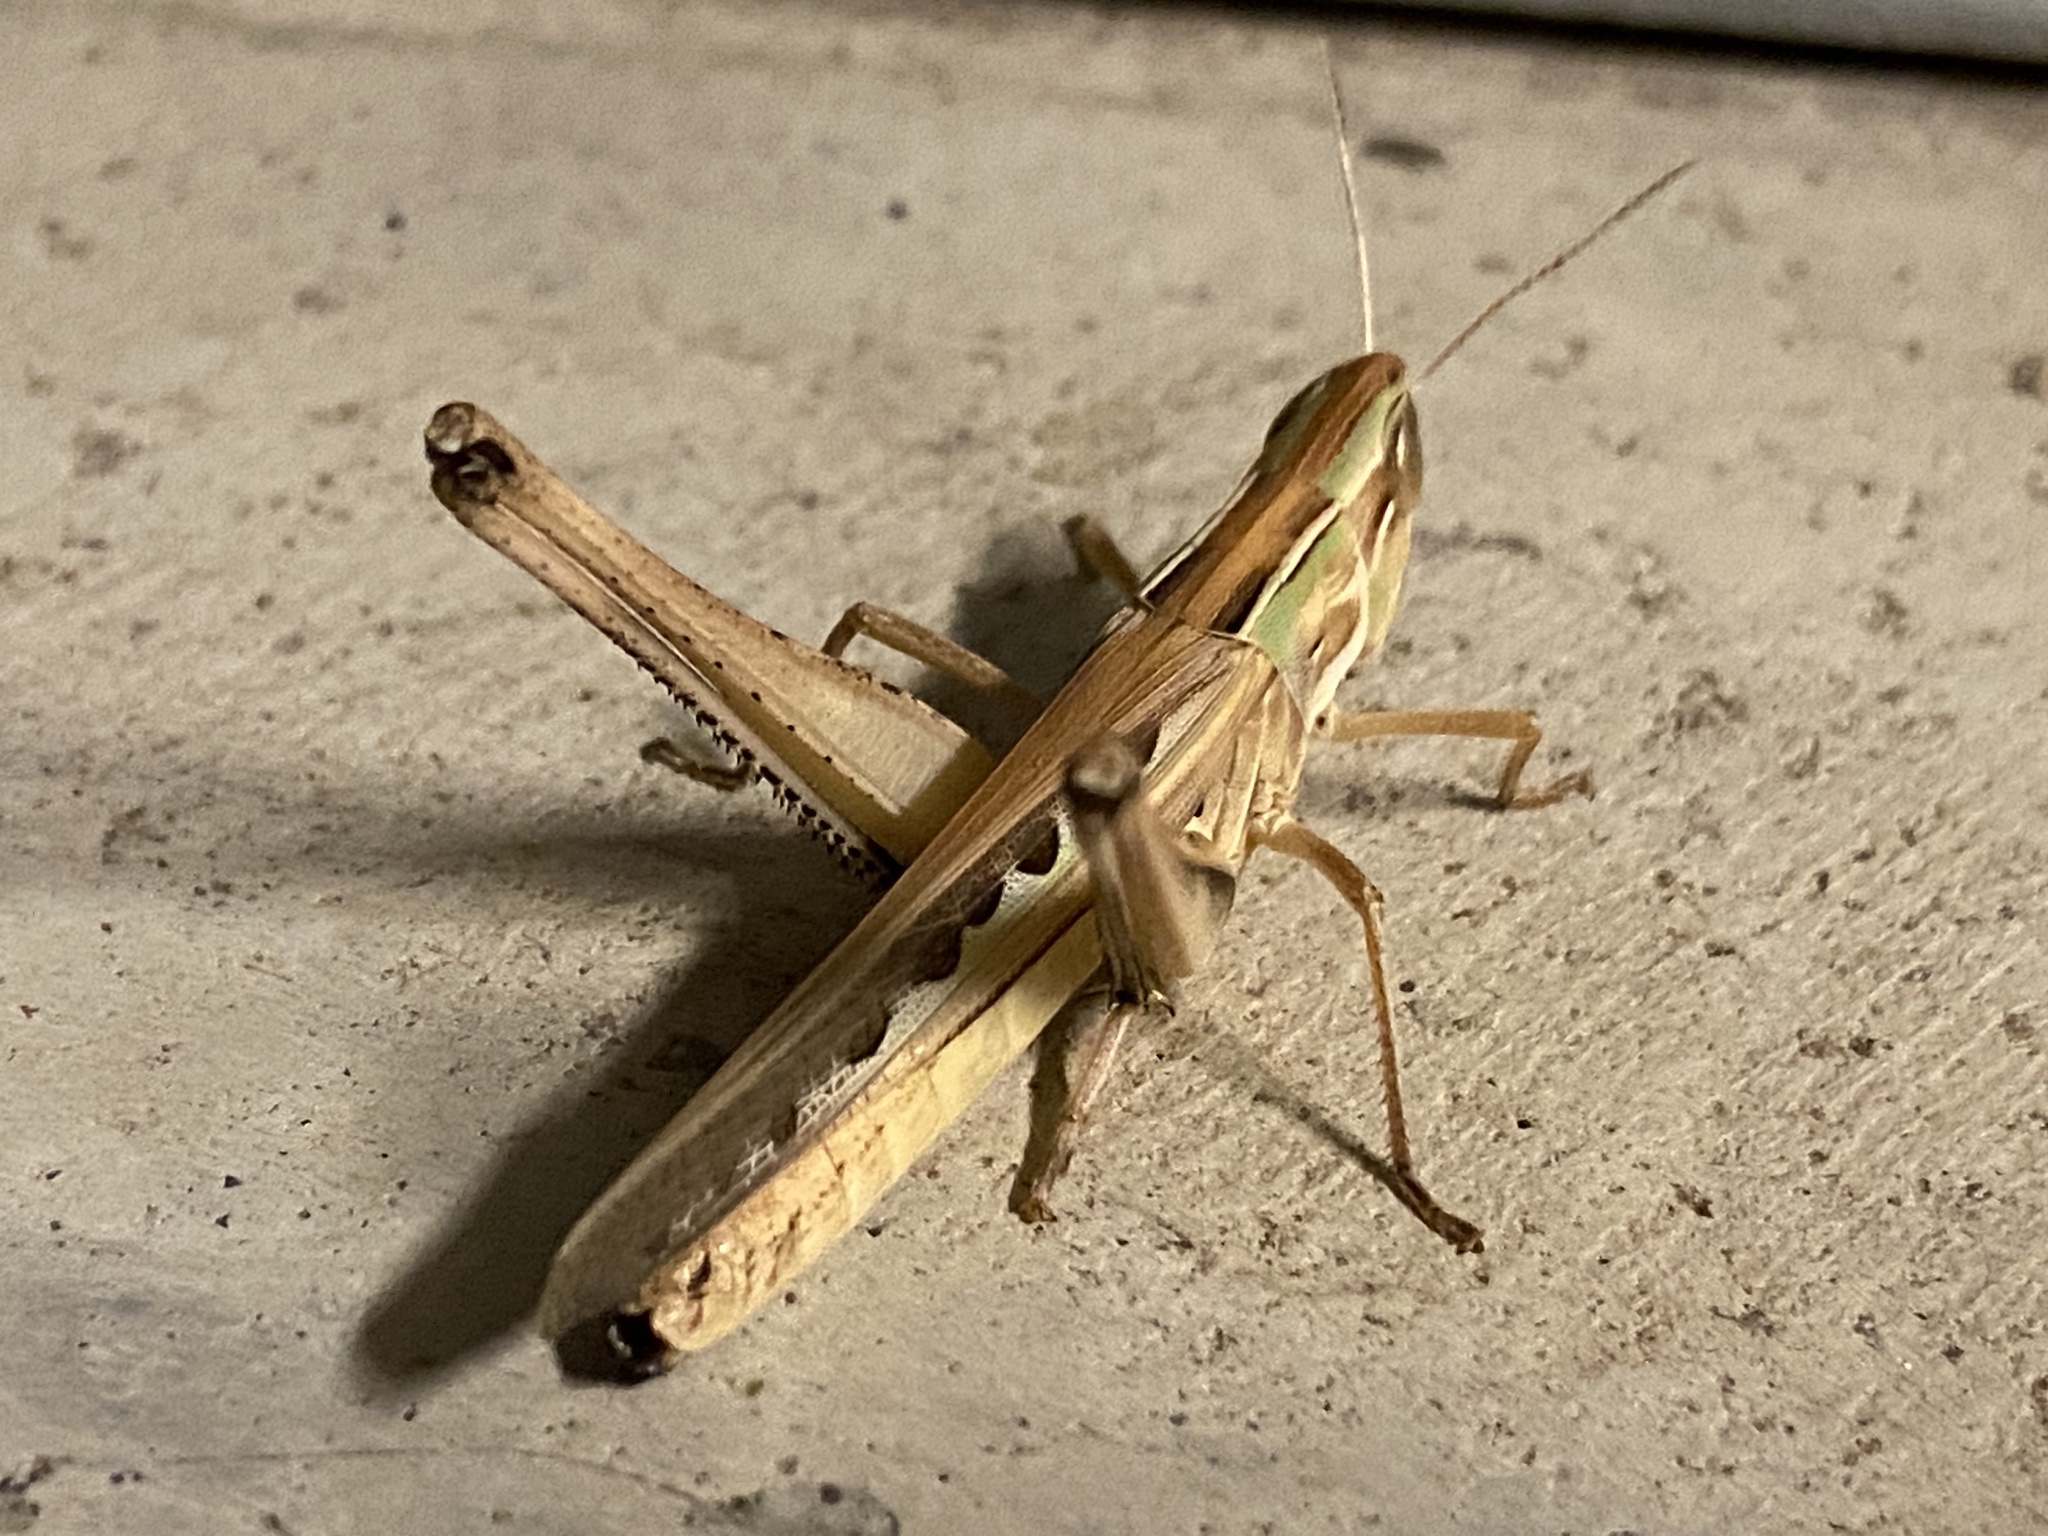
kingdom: Animalia
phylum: Arthropoda
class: Insecta
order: Orthoptera
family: Acrididae
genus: Syrbula
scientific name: Syrbula admirabilis
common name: Handsome grasshopper
